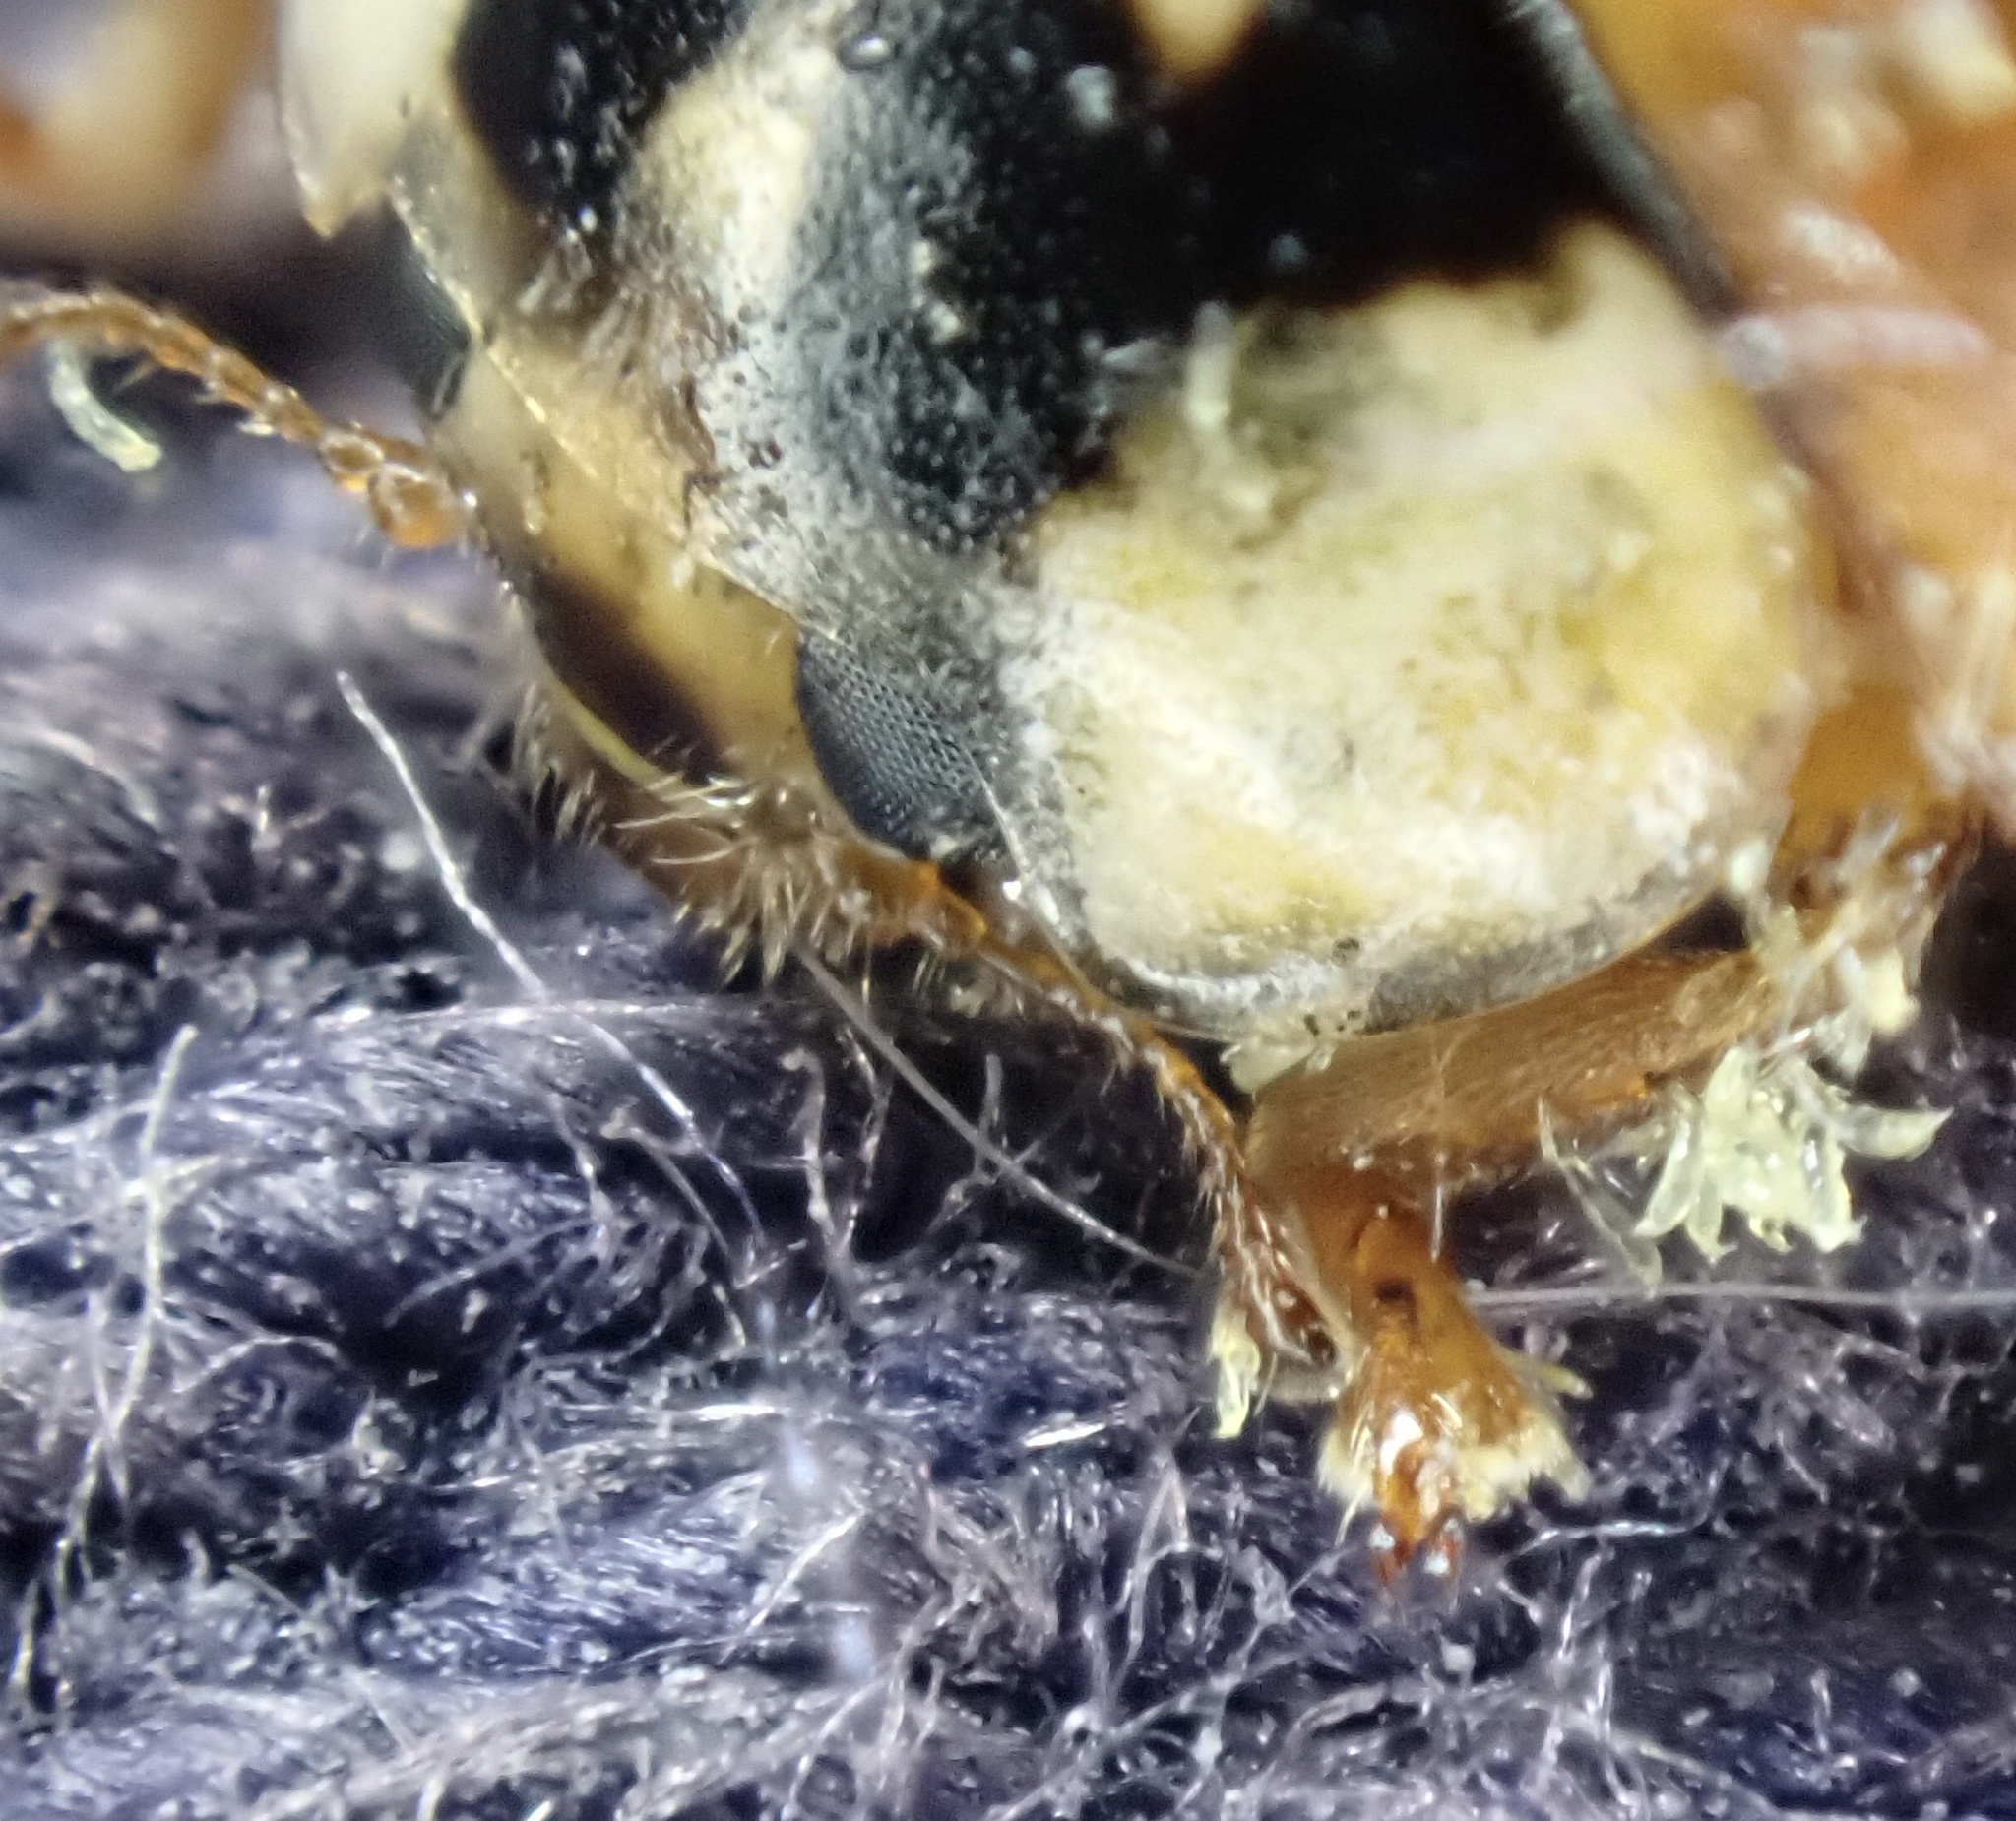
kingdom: Fungi
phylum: Ascomycota
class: Laboulbeniomycetes
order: Laboulbeniales
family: Laboulbeniaceae
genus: Hesperomyces
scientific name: Hesperomyces harmoniae
